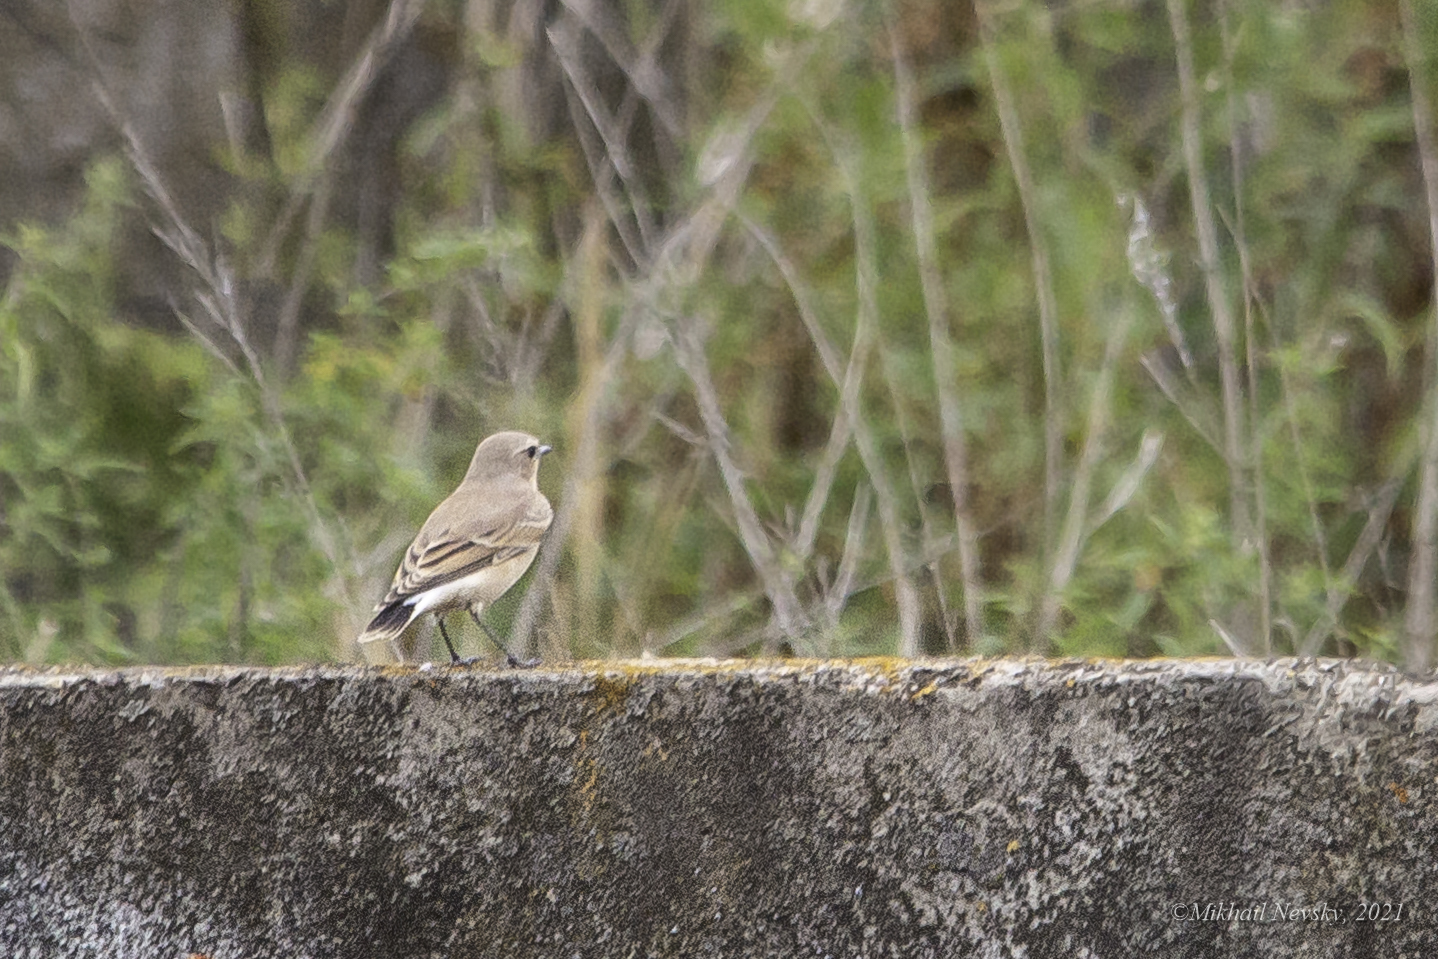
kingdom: Animalia
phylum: Chordata
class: Aves
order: Passeriformes
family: Muscicapidae
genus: Oenanthe
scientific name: Oenanthe oenanthe
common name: Northern wheatear
